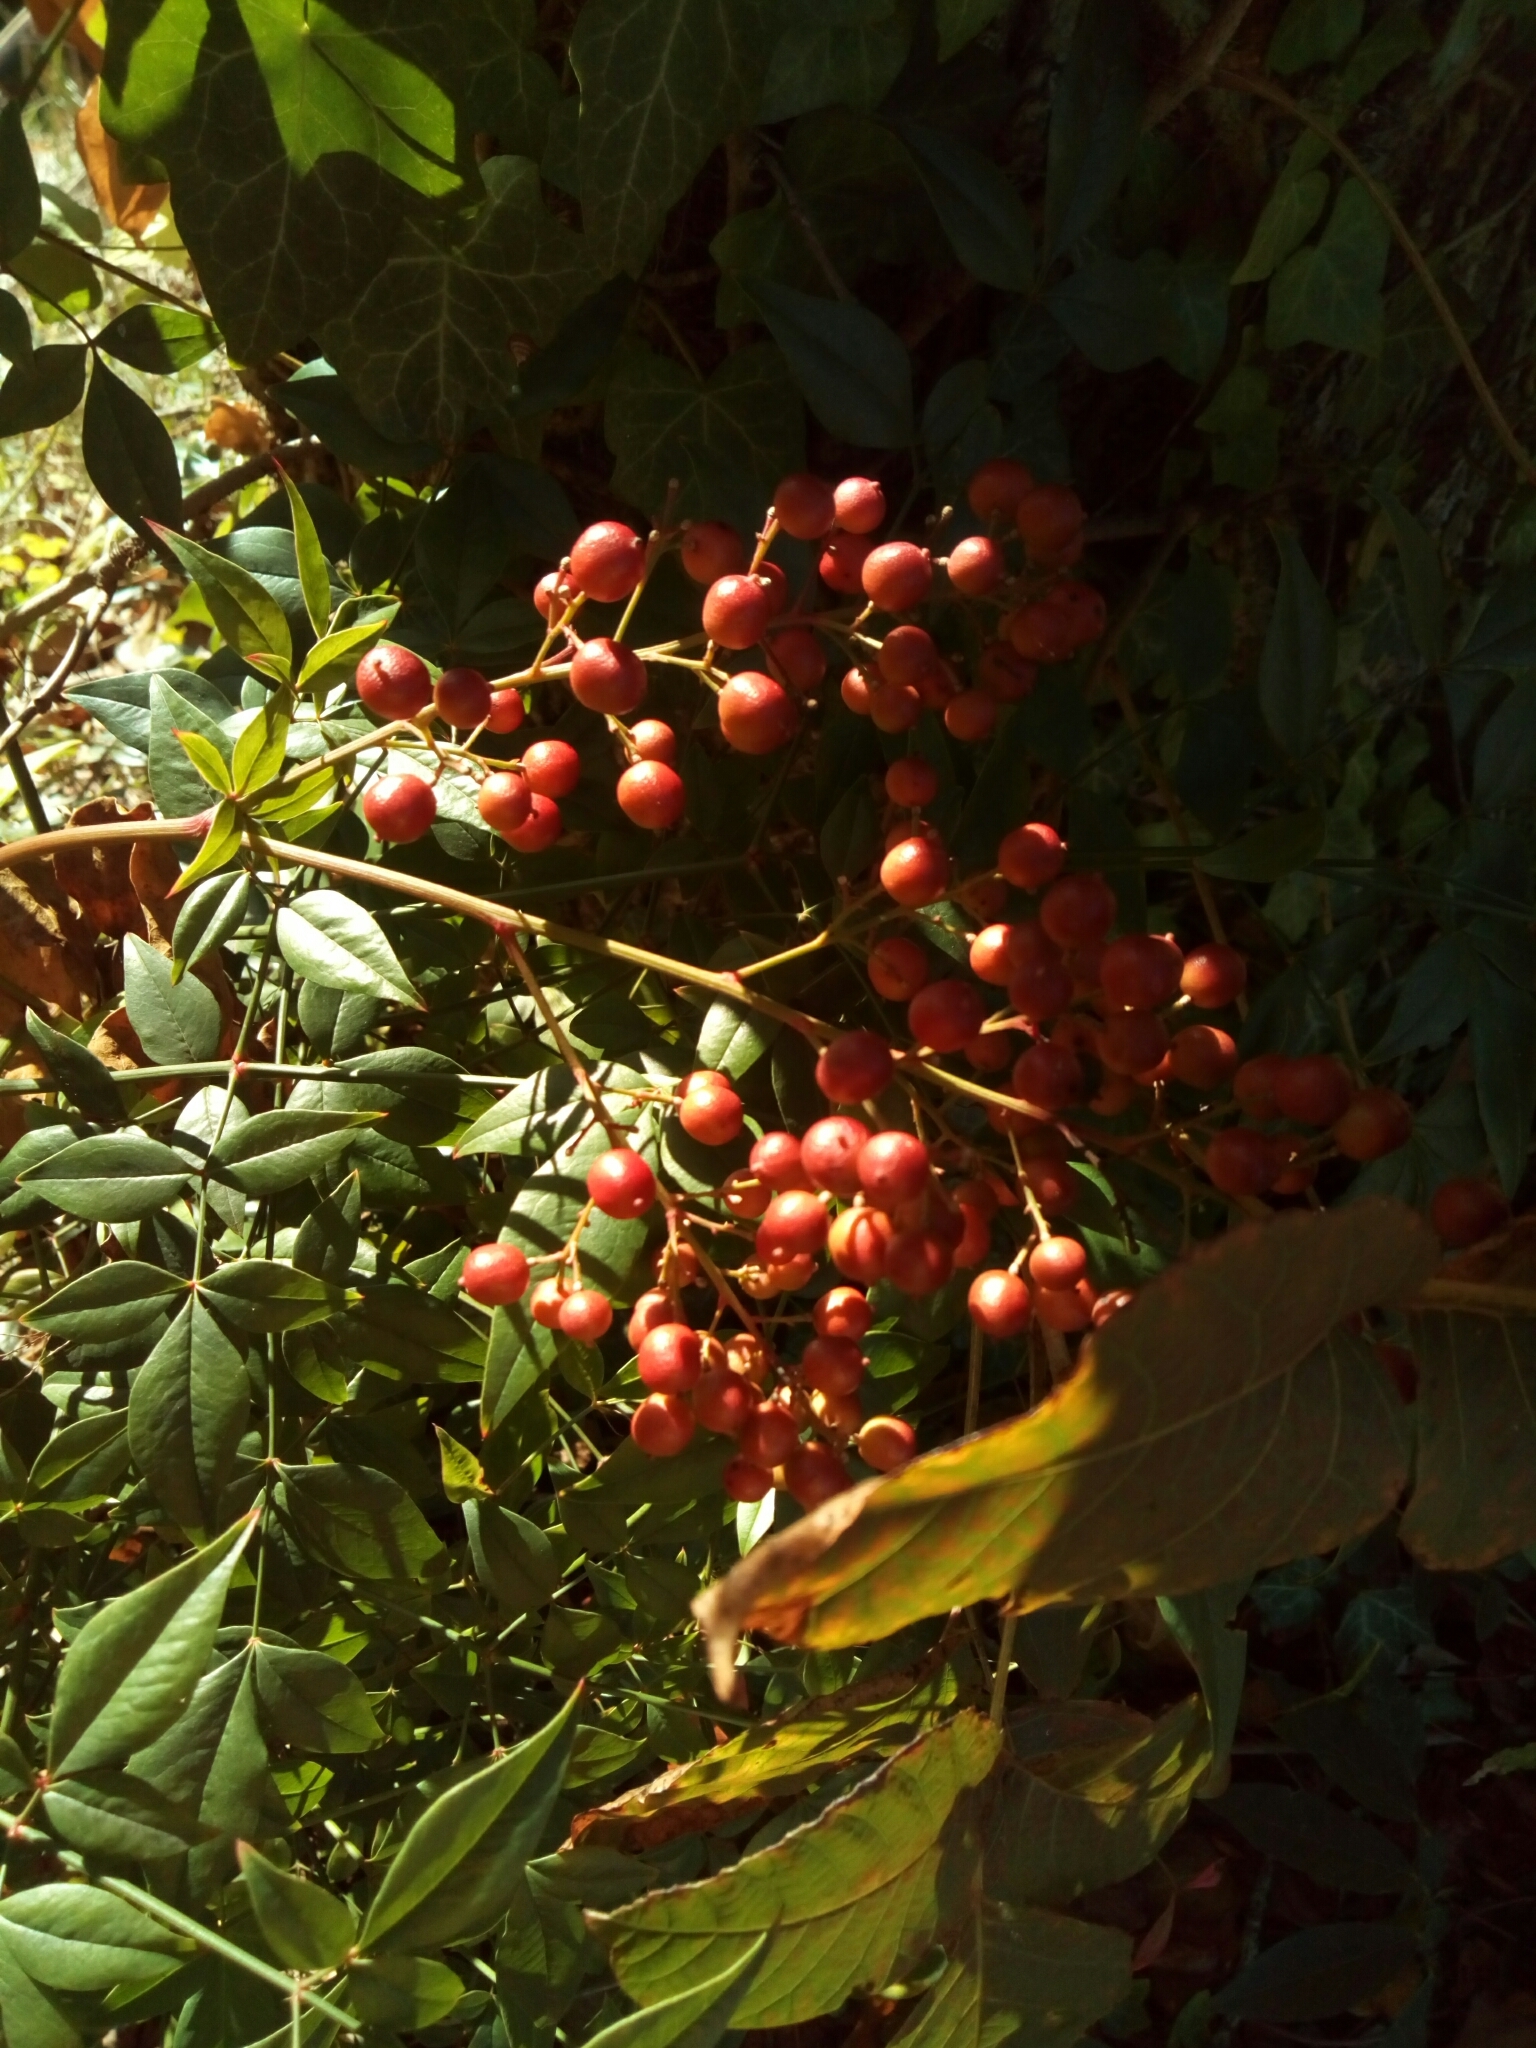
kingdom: Plantae
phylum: Tracheophyta
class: Magnoliopsida
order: Ranunculales
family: Berberidaceae
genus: Nandina
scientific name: Nandina domestica
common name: Sacred bamboo
